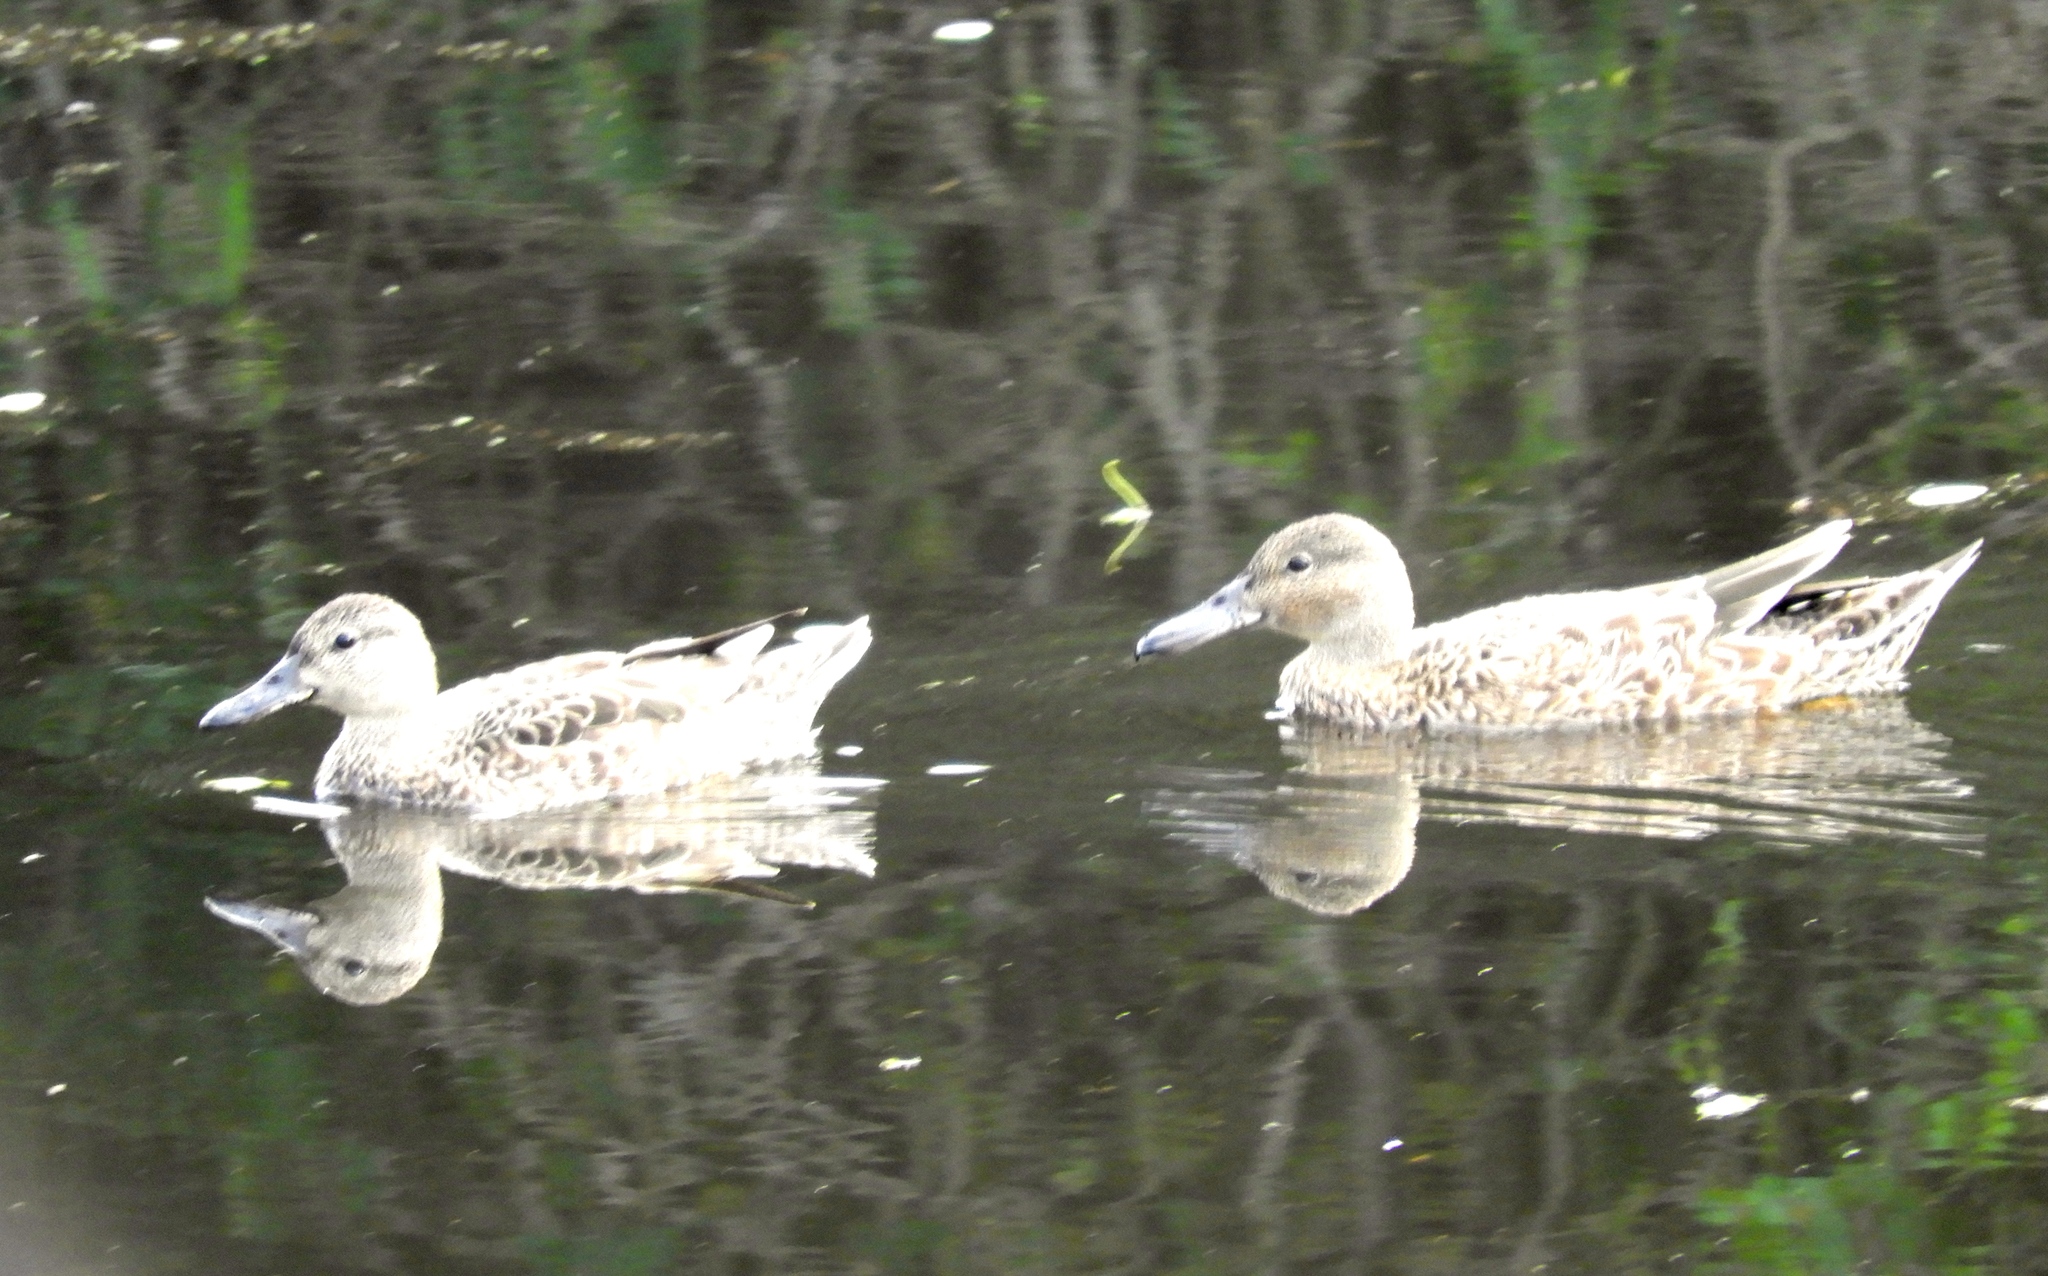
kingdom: Animalia
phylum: Chordata
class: Aves
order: Anseriformes
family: Anatidae
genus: Spatula
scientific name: Spatula cyanoptera
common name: Cinnamon teal
